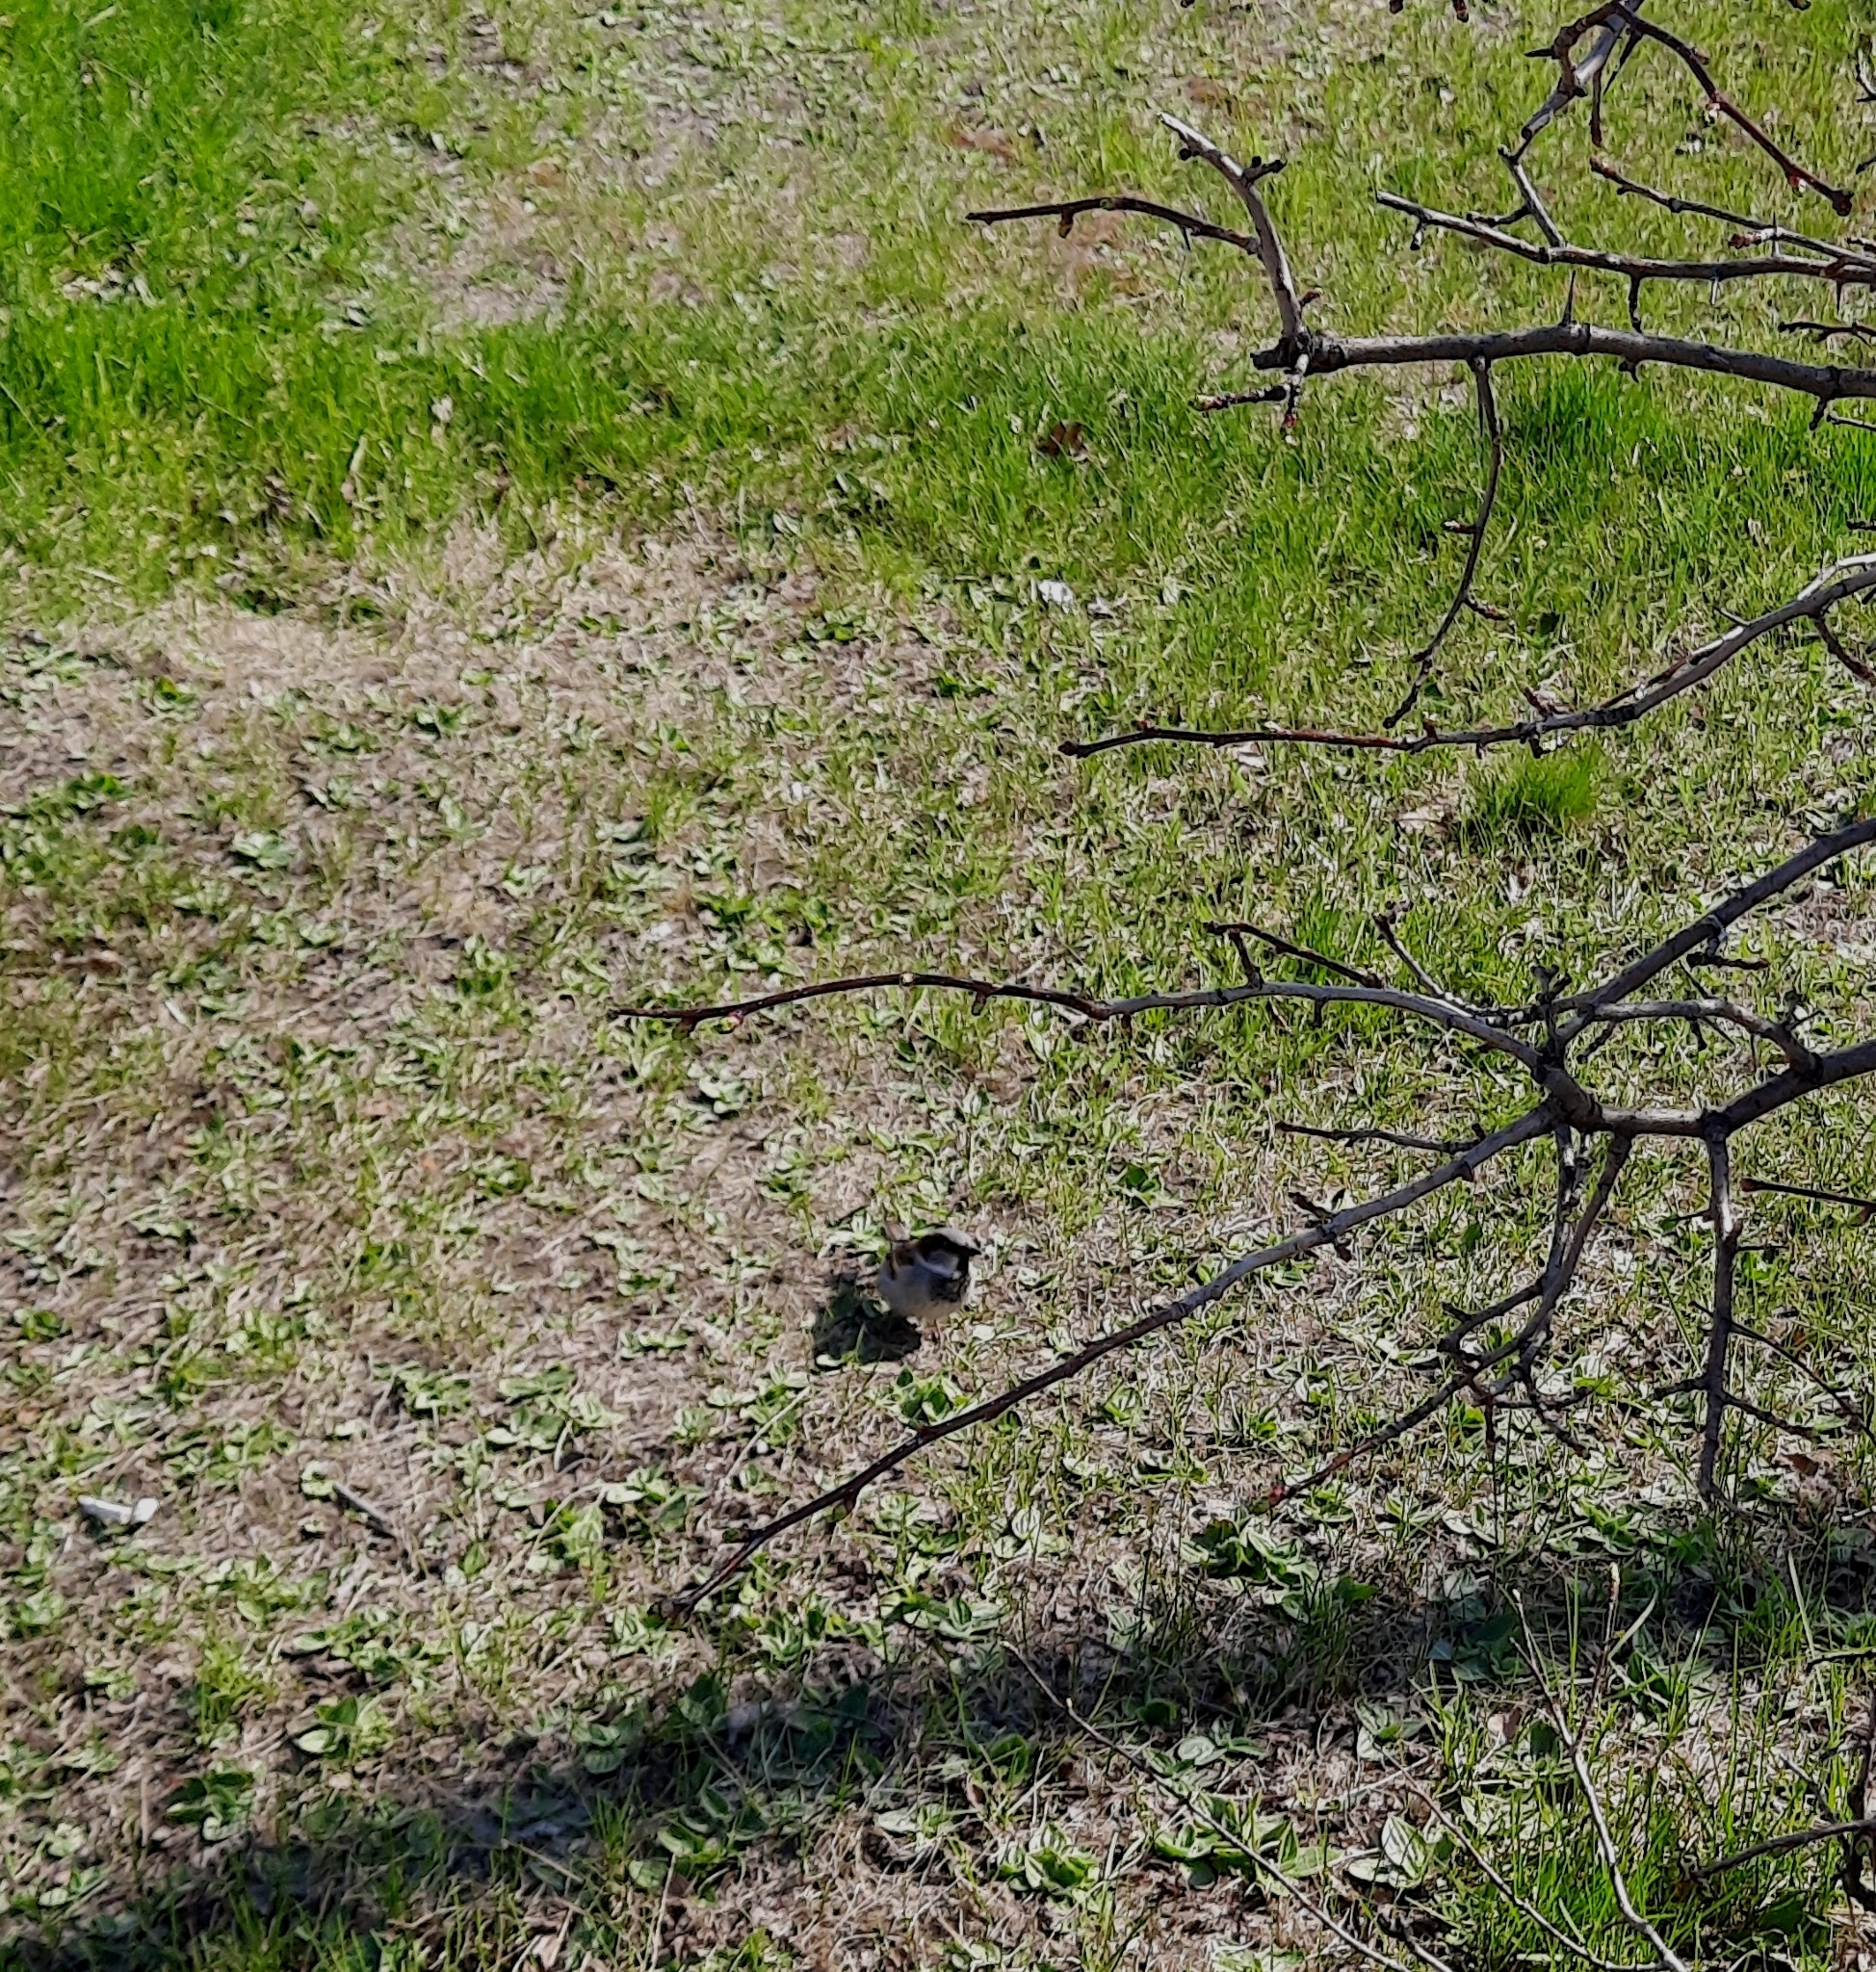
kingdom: Animalia
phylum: Chordata
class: Aves
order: Passeriformes
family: Passeridae
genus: Passer
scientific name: Passer domesticus
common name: House sparrow
